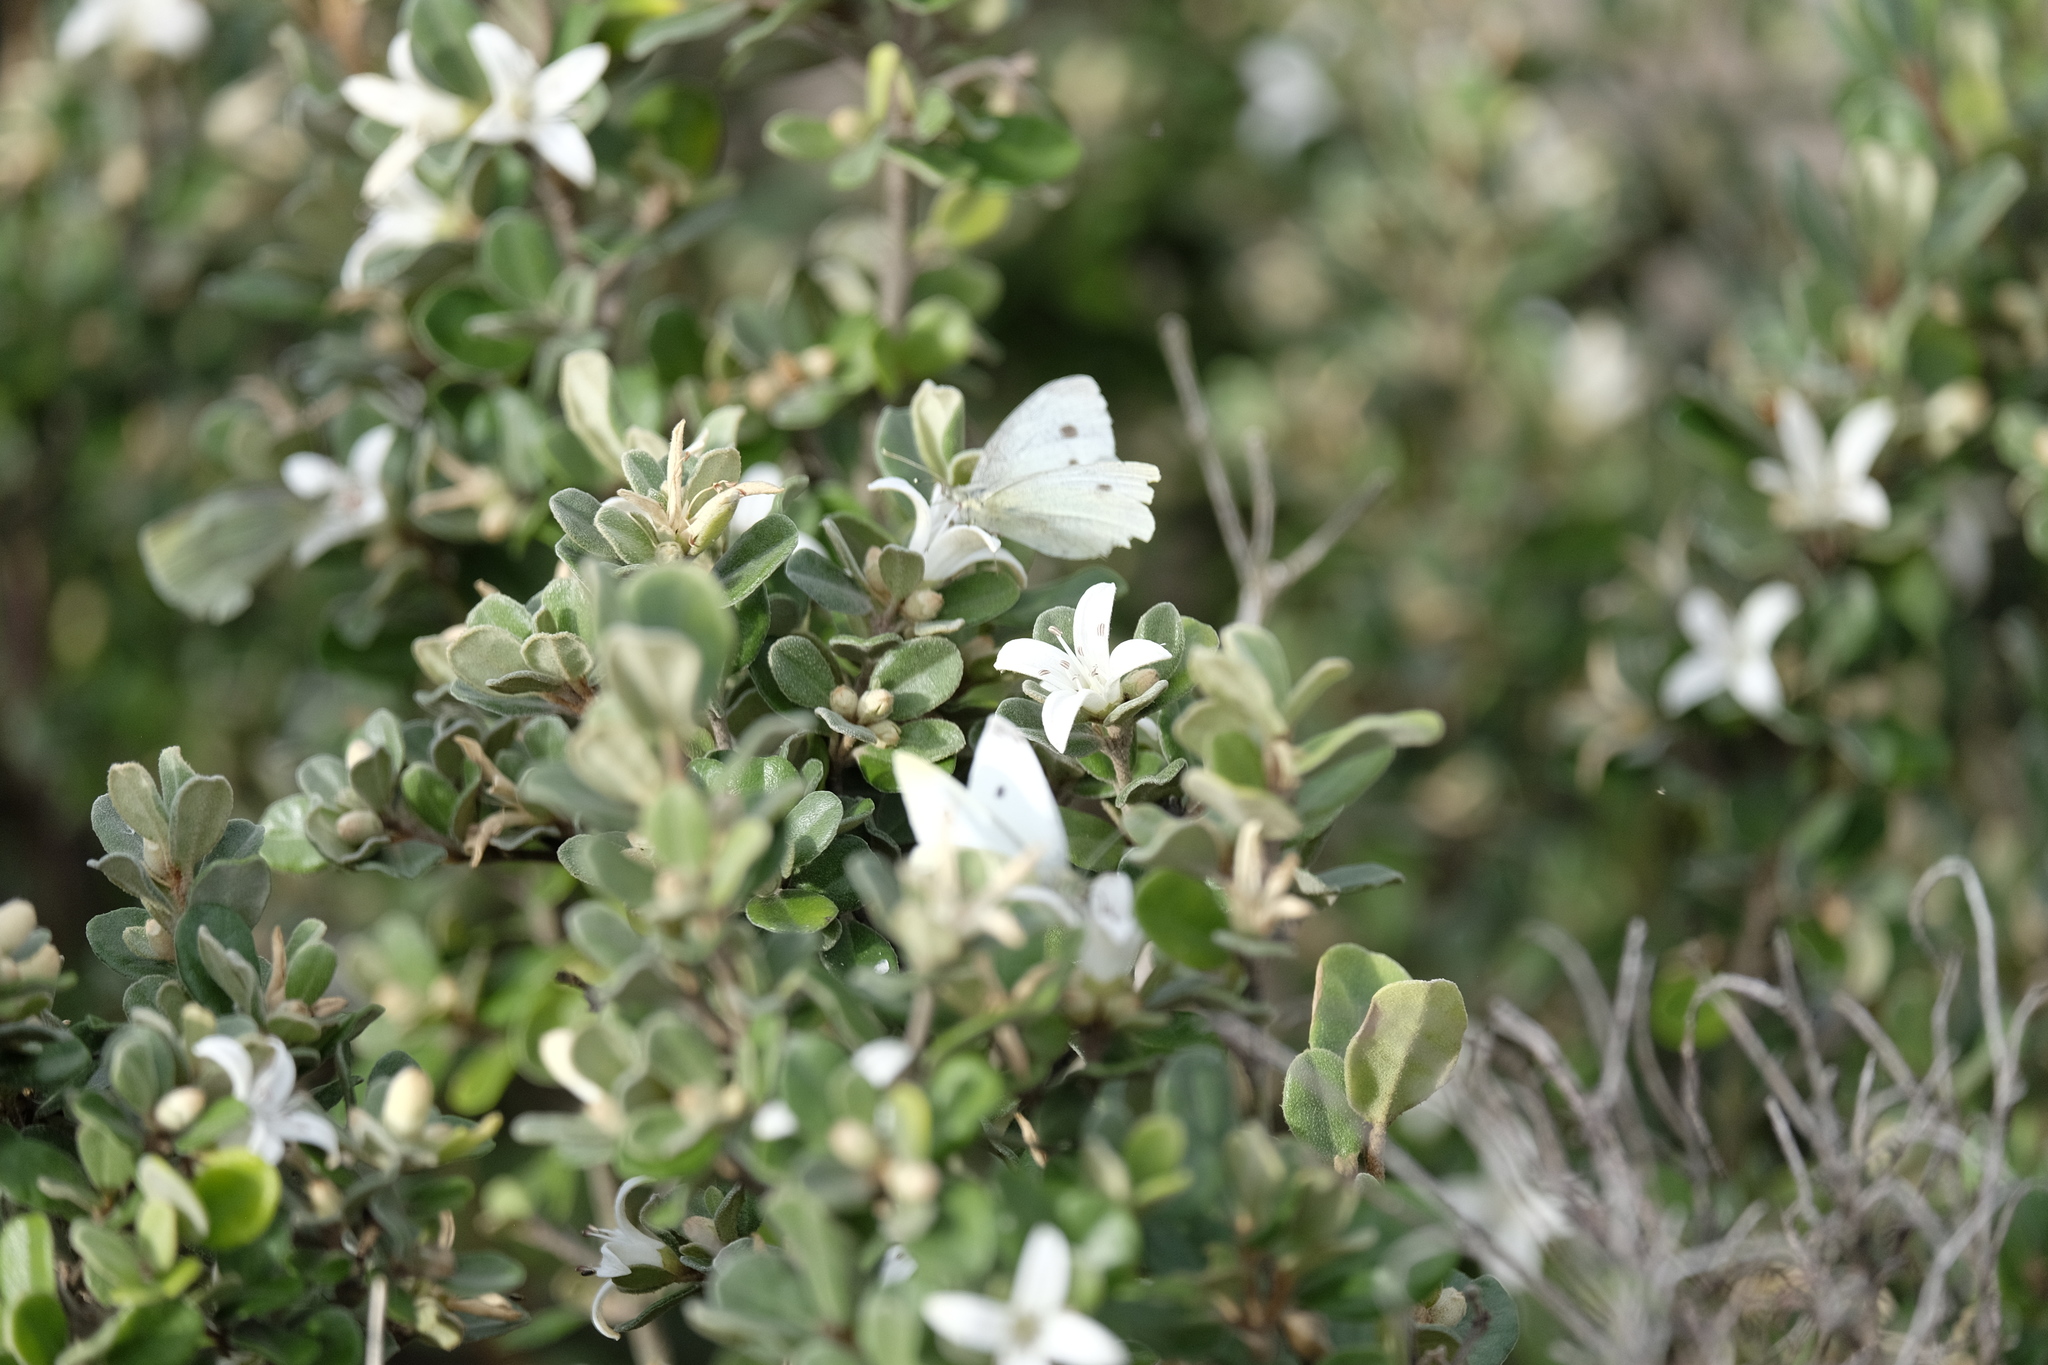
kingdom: Animalia
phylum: Arthropoda
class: Insecta
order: Lepidoptera
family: Pieridae
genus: Pieris
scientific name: Pieris rapae
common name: Small white
